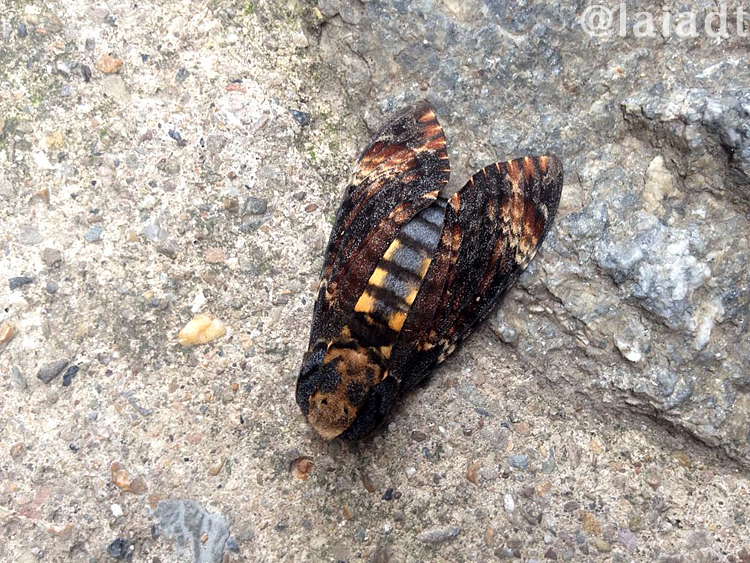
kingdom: Animalia
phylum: Arthropoda
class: Insecta
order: Lepidoptera
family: Sphingidae
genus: Acherontia
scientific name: Acherontia atropos
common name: Death's-head hawk moth
